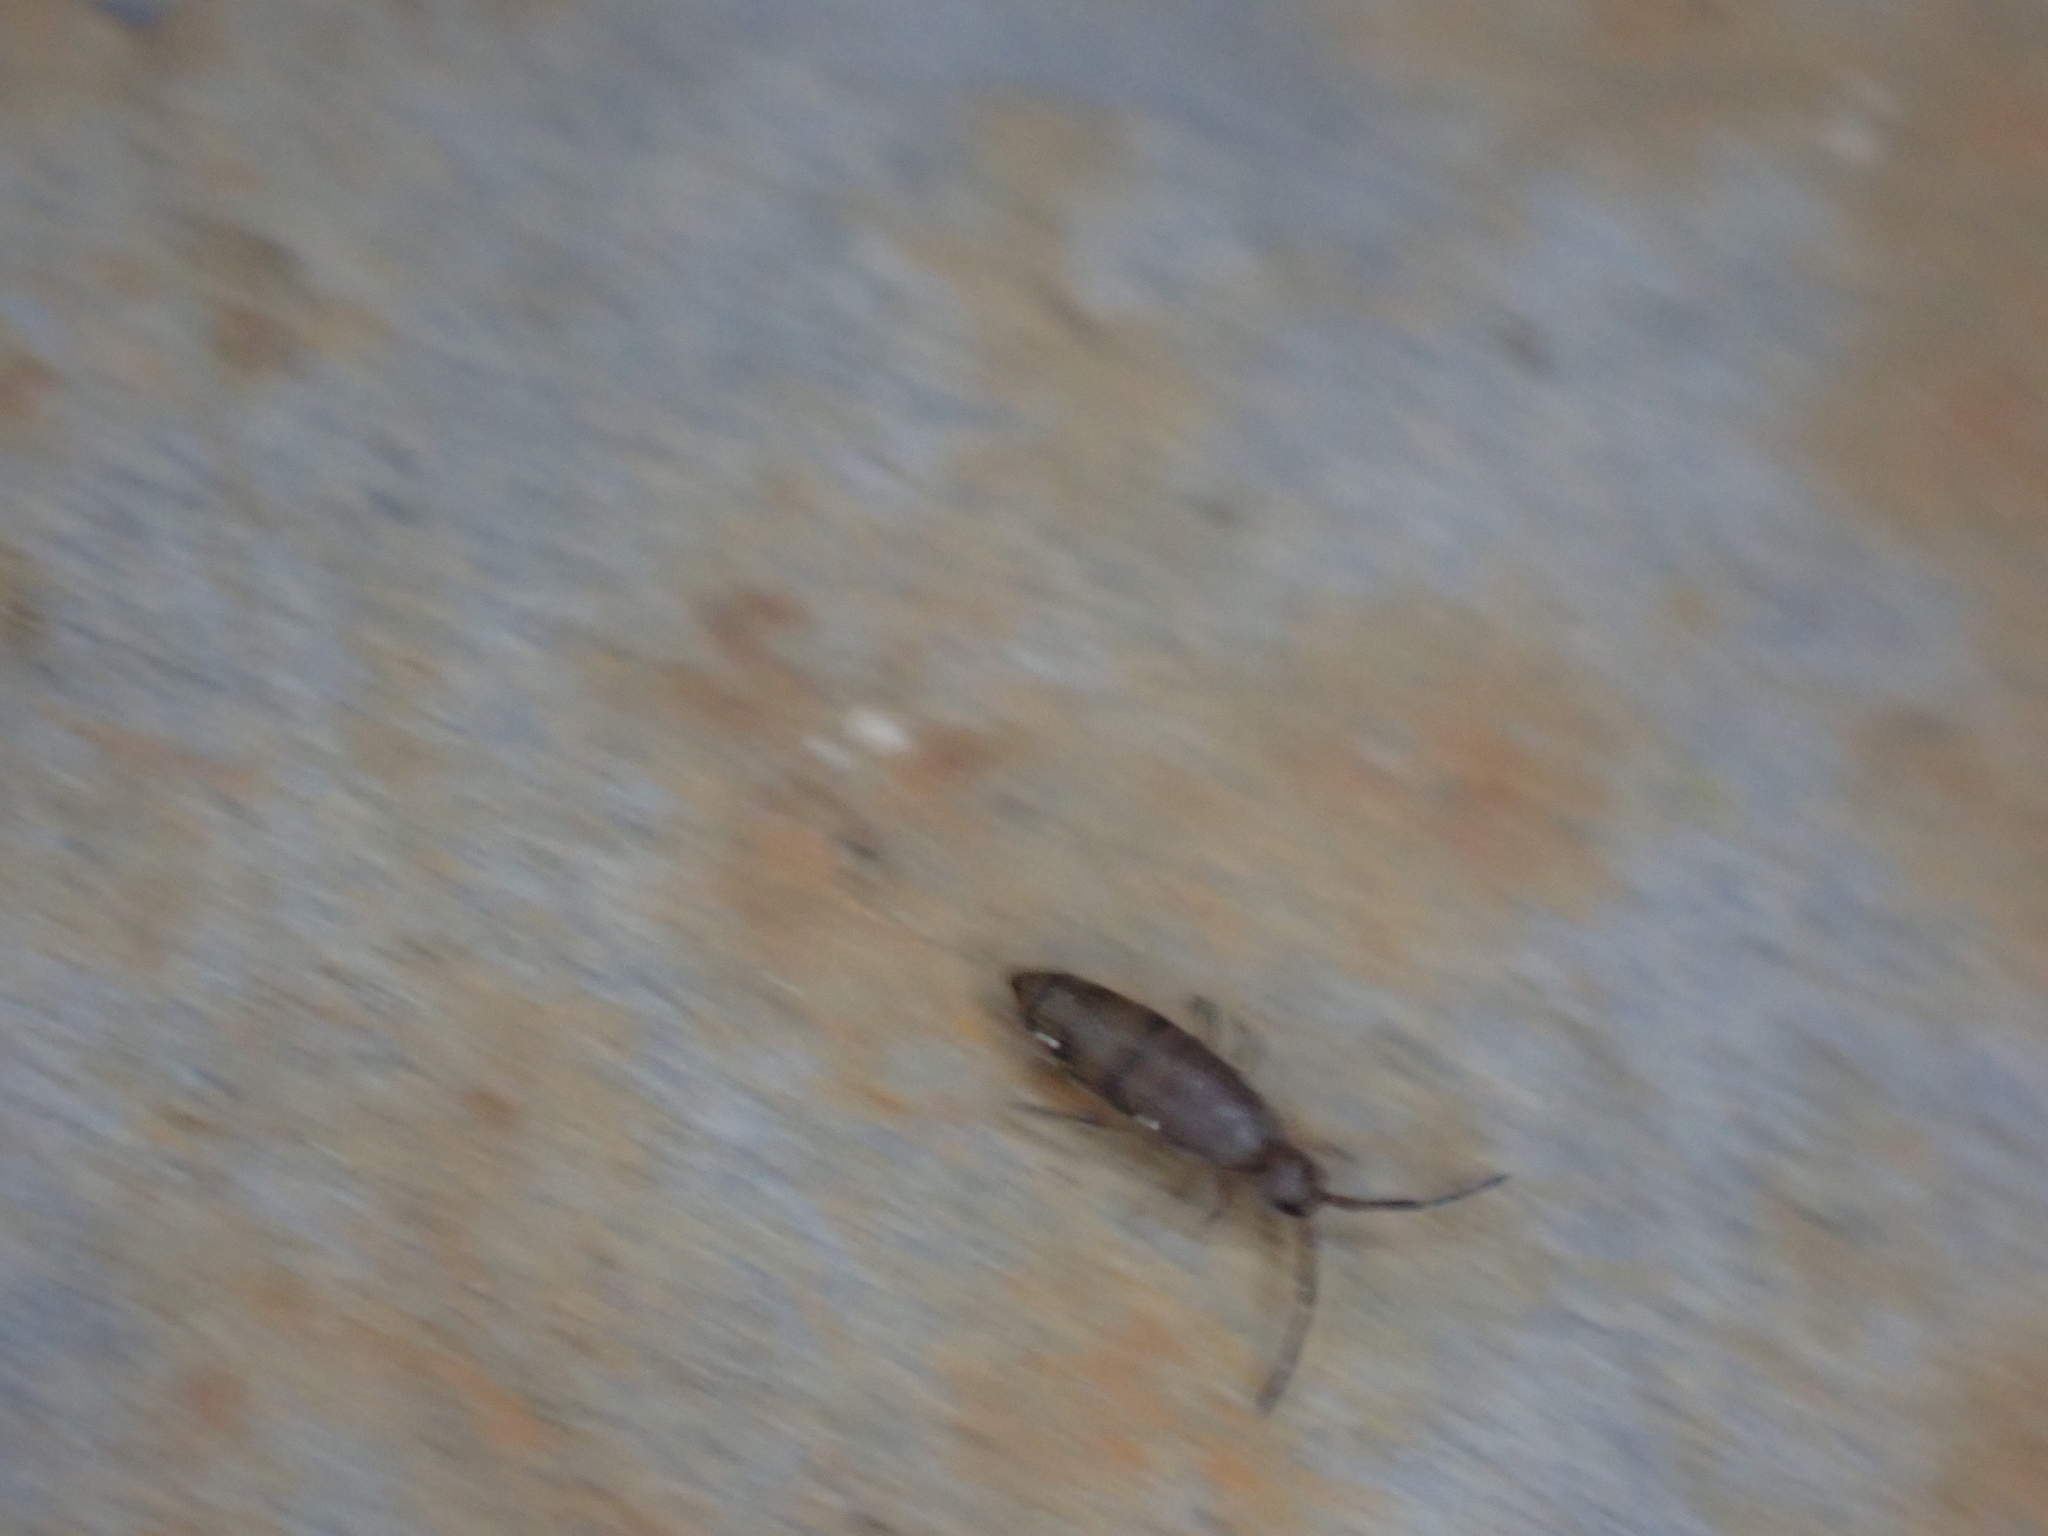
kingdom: Animalia
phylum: Arthropoda
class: Collembola
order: Entomobryomorpha
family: Entomobryidae
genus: Willowsia
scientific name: Willowsia nigromaculata
